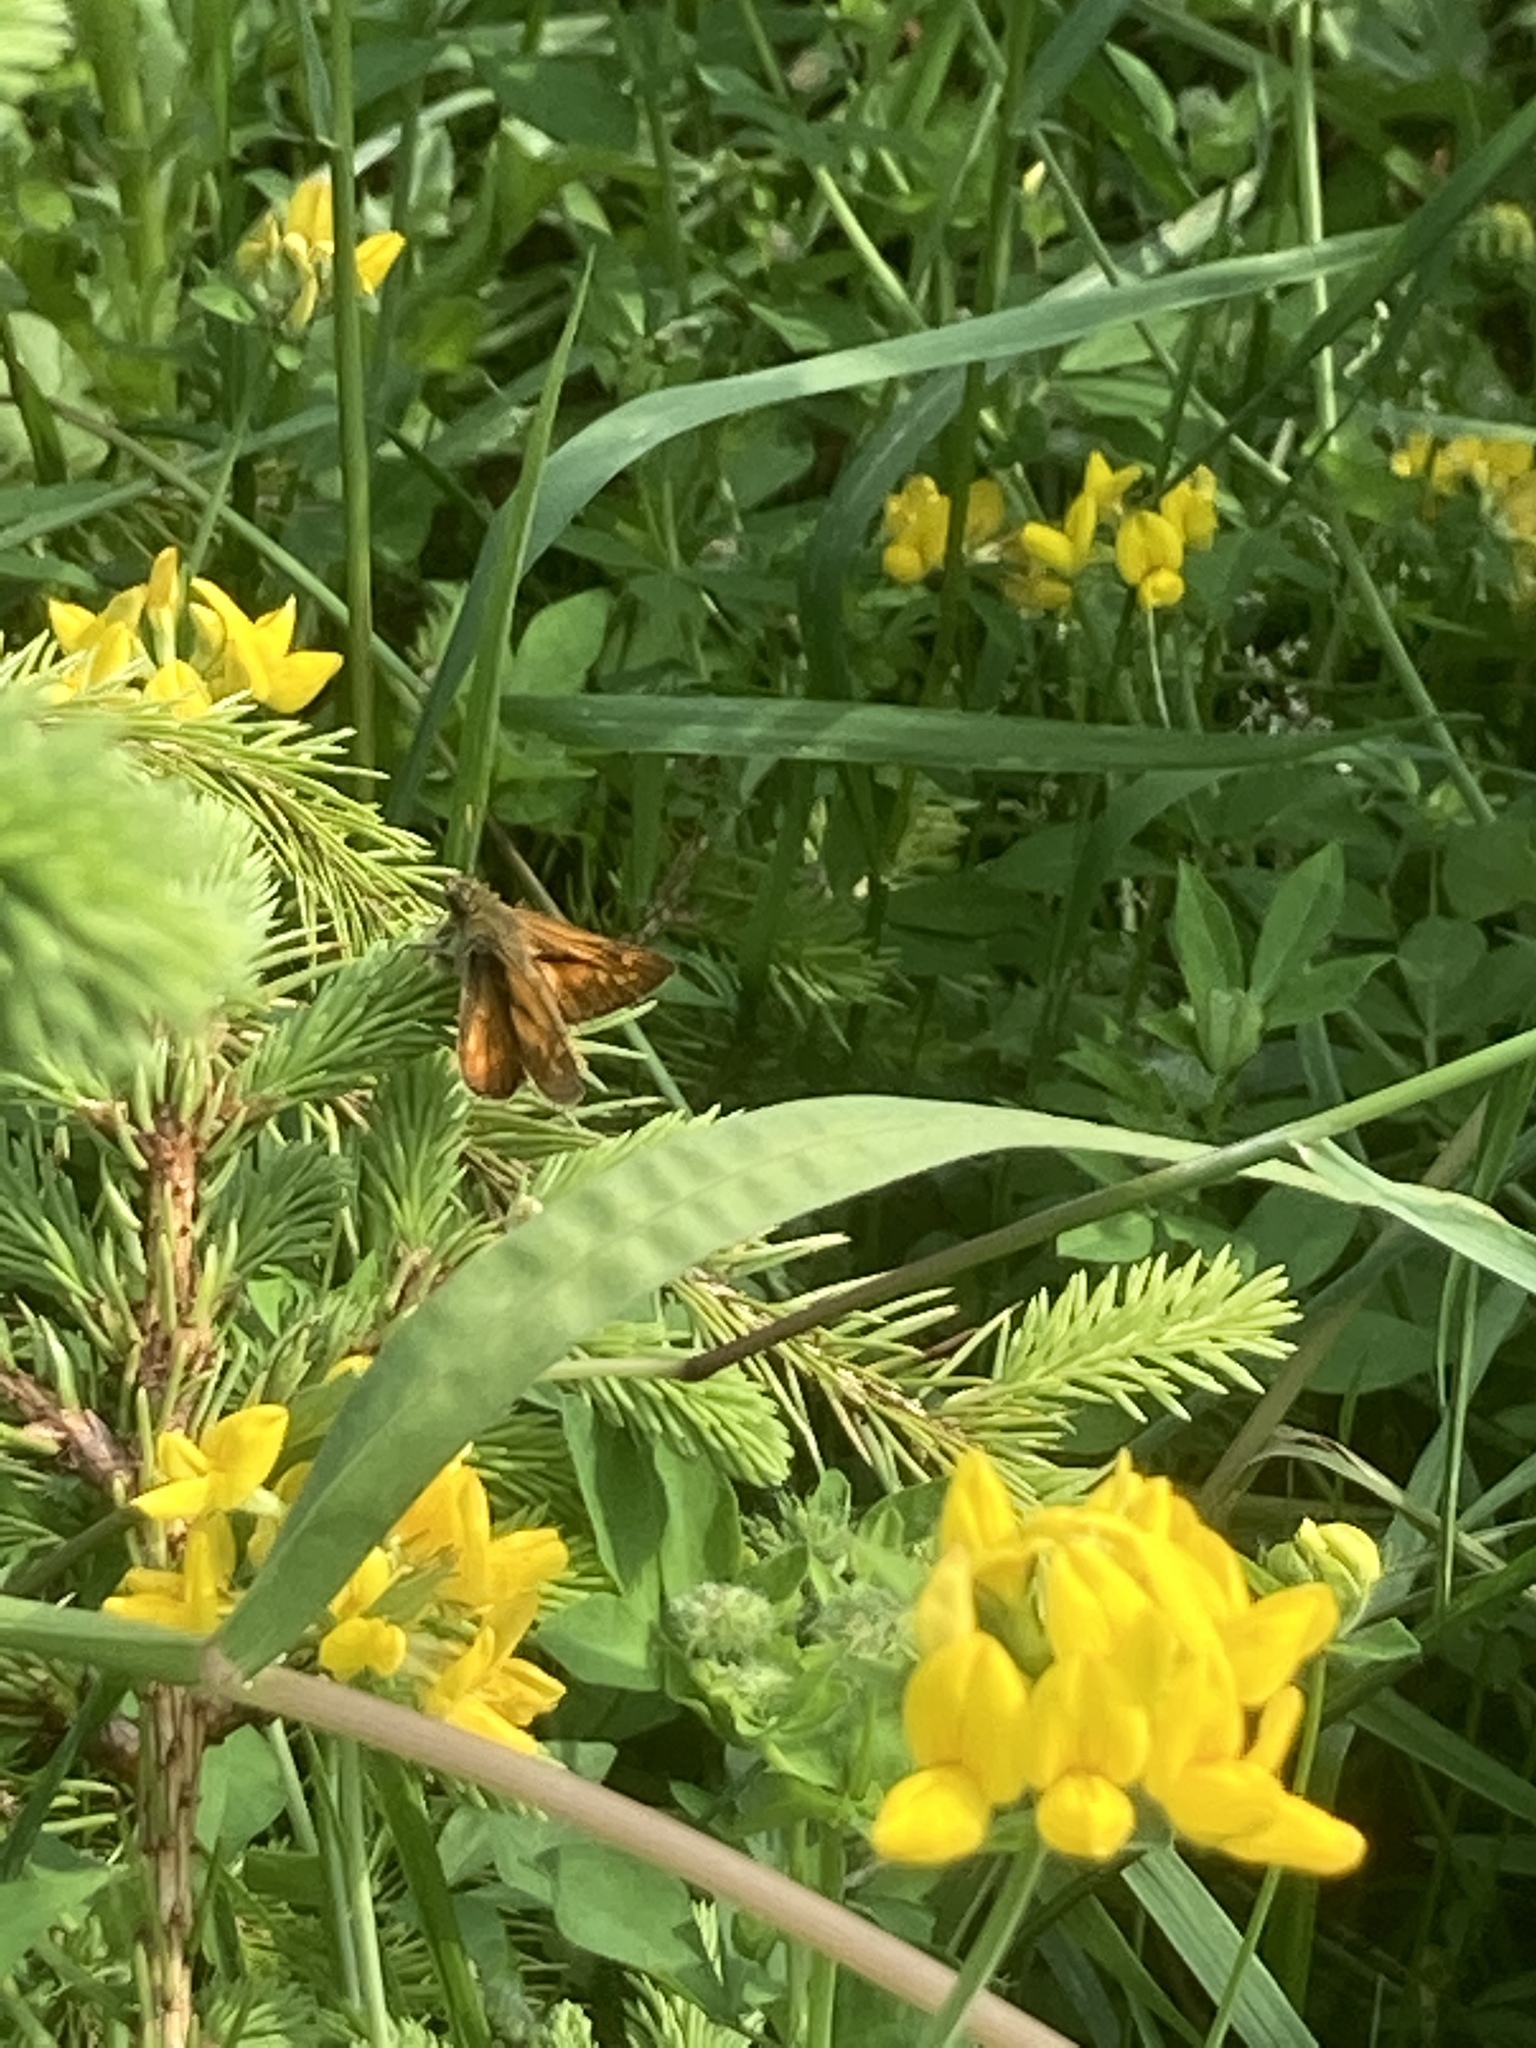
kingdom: Animalia
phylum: Arthropoda
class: Insecta
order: Lepidoptera
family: Hesperiidae
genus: Ochlodes
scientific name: Ochlodes venata
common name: Large skipper
